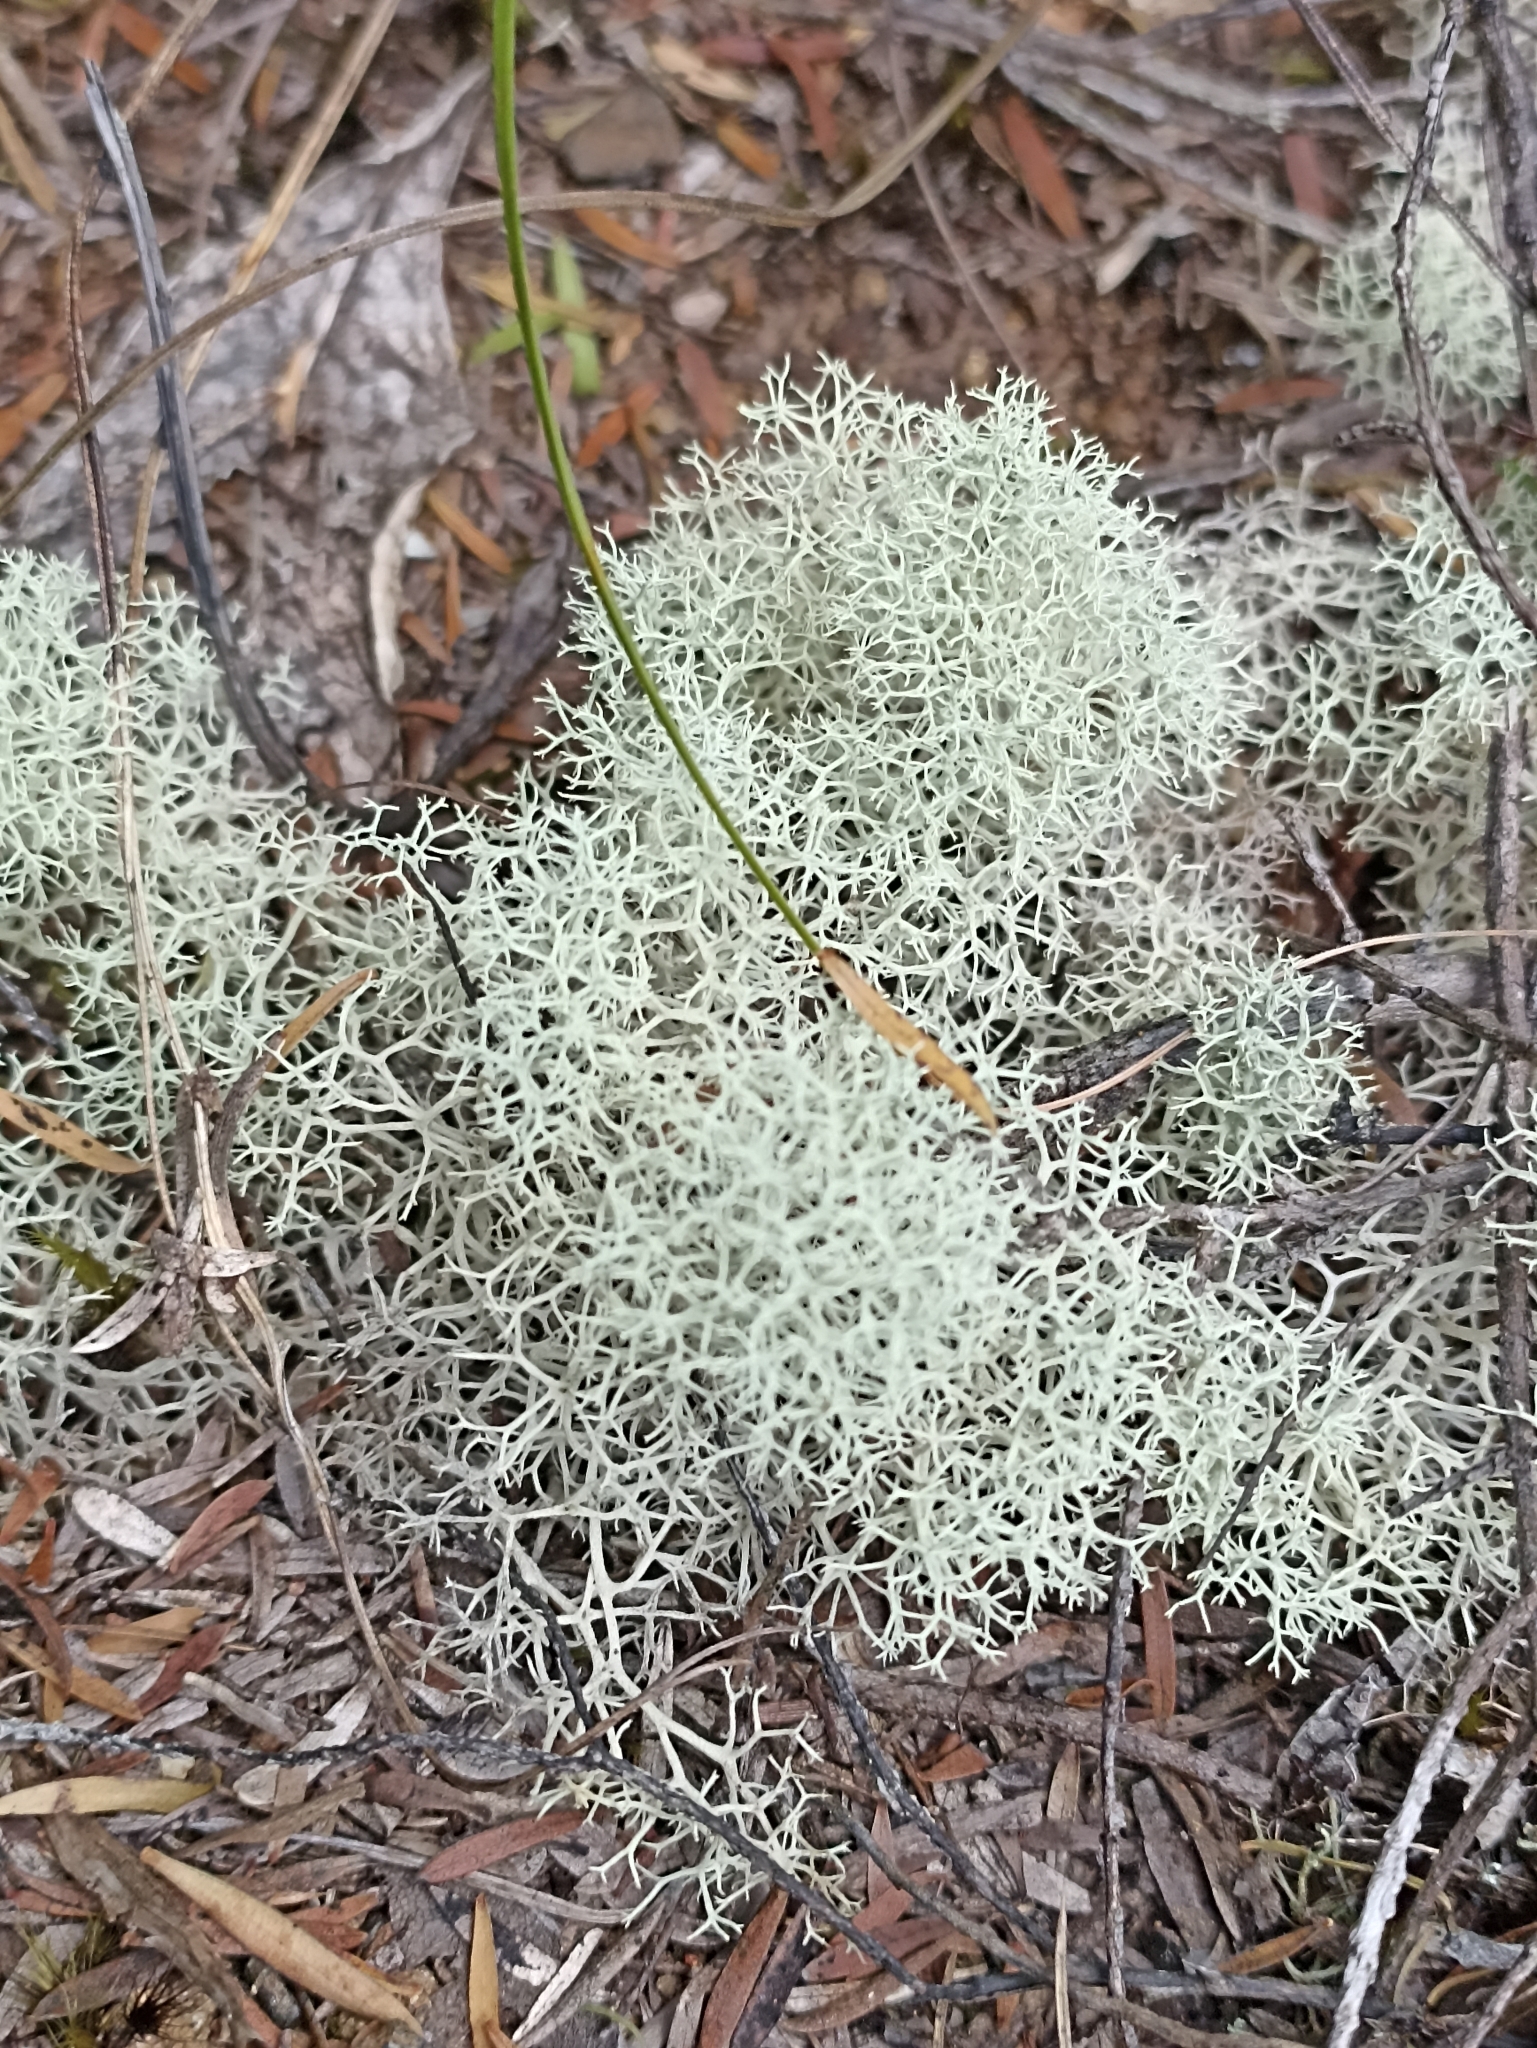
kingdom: Fungi
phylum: Ascomycota
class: Lecanoromycetes
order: Lecanorales
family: Cladoniaceae
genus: Cladonia
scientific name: Cladonia confusa
